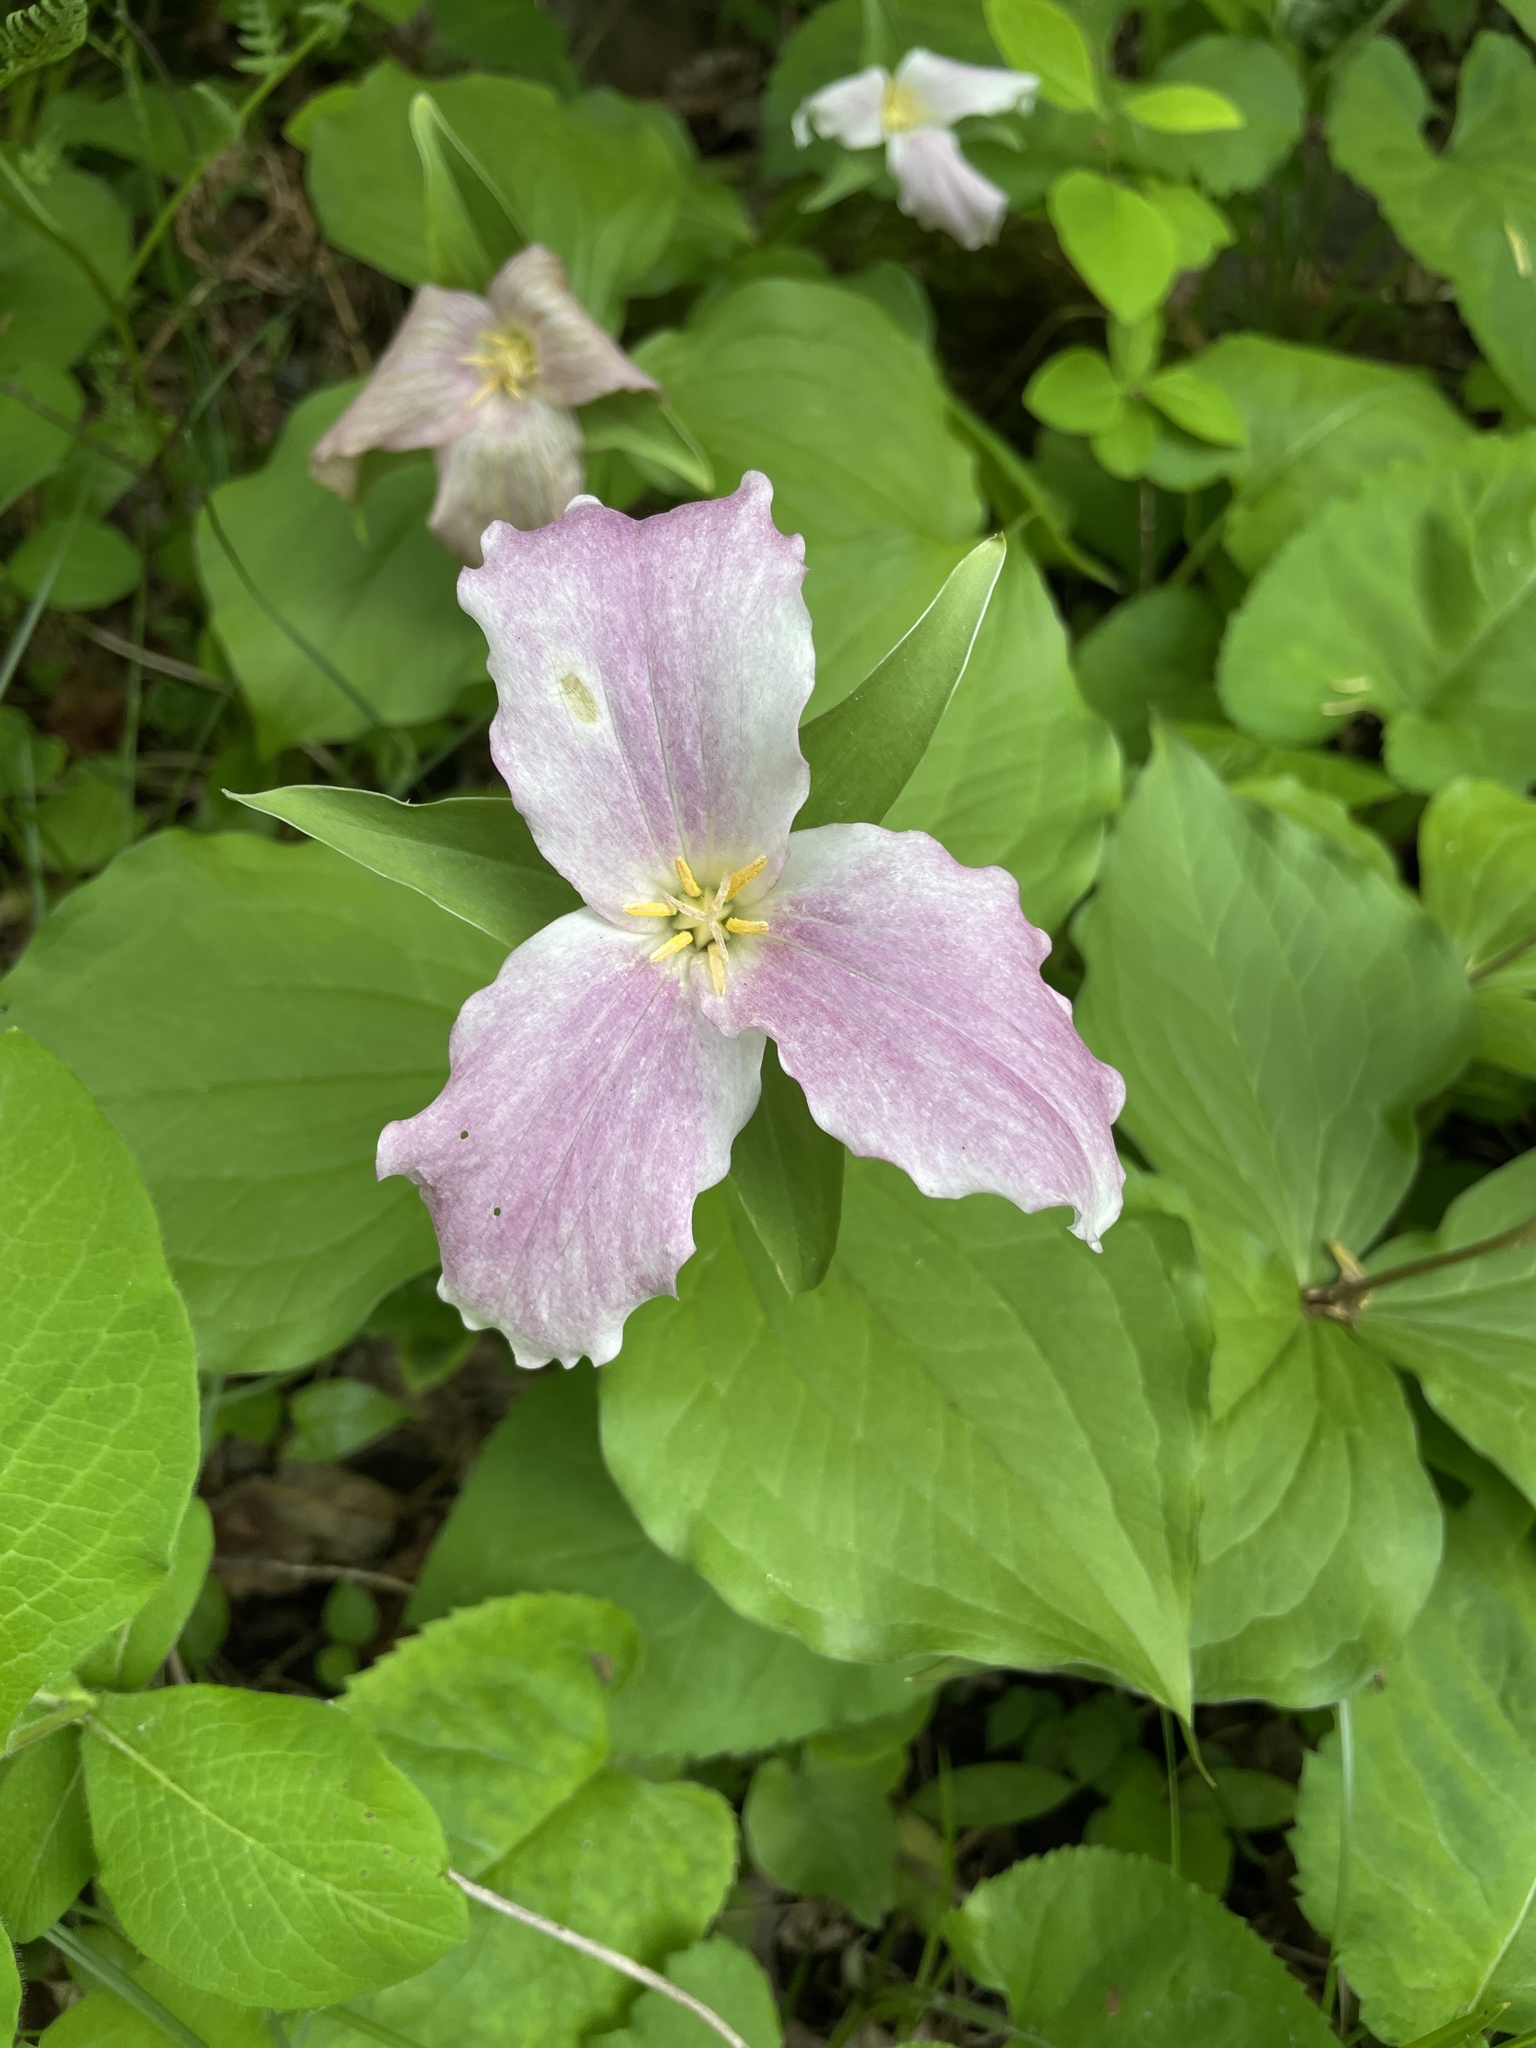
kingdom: Plantae
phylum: Tracheophyta
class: Liliopsida
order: Liliales
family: Melanthiaceae
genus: Trillium
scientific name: Trillium grandiflorum
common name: Great white trillium
